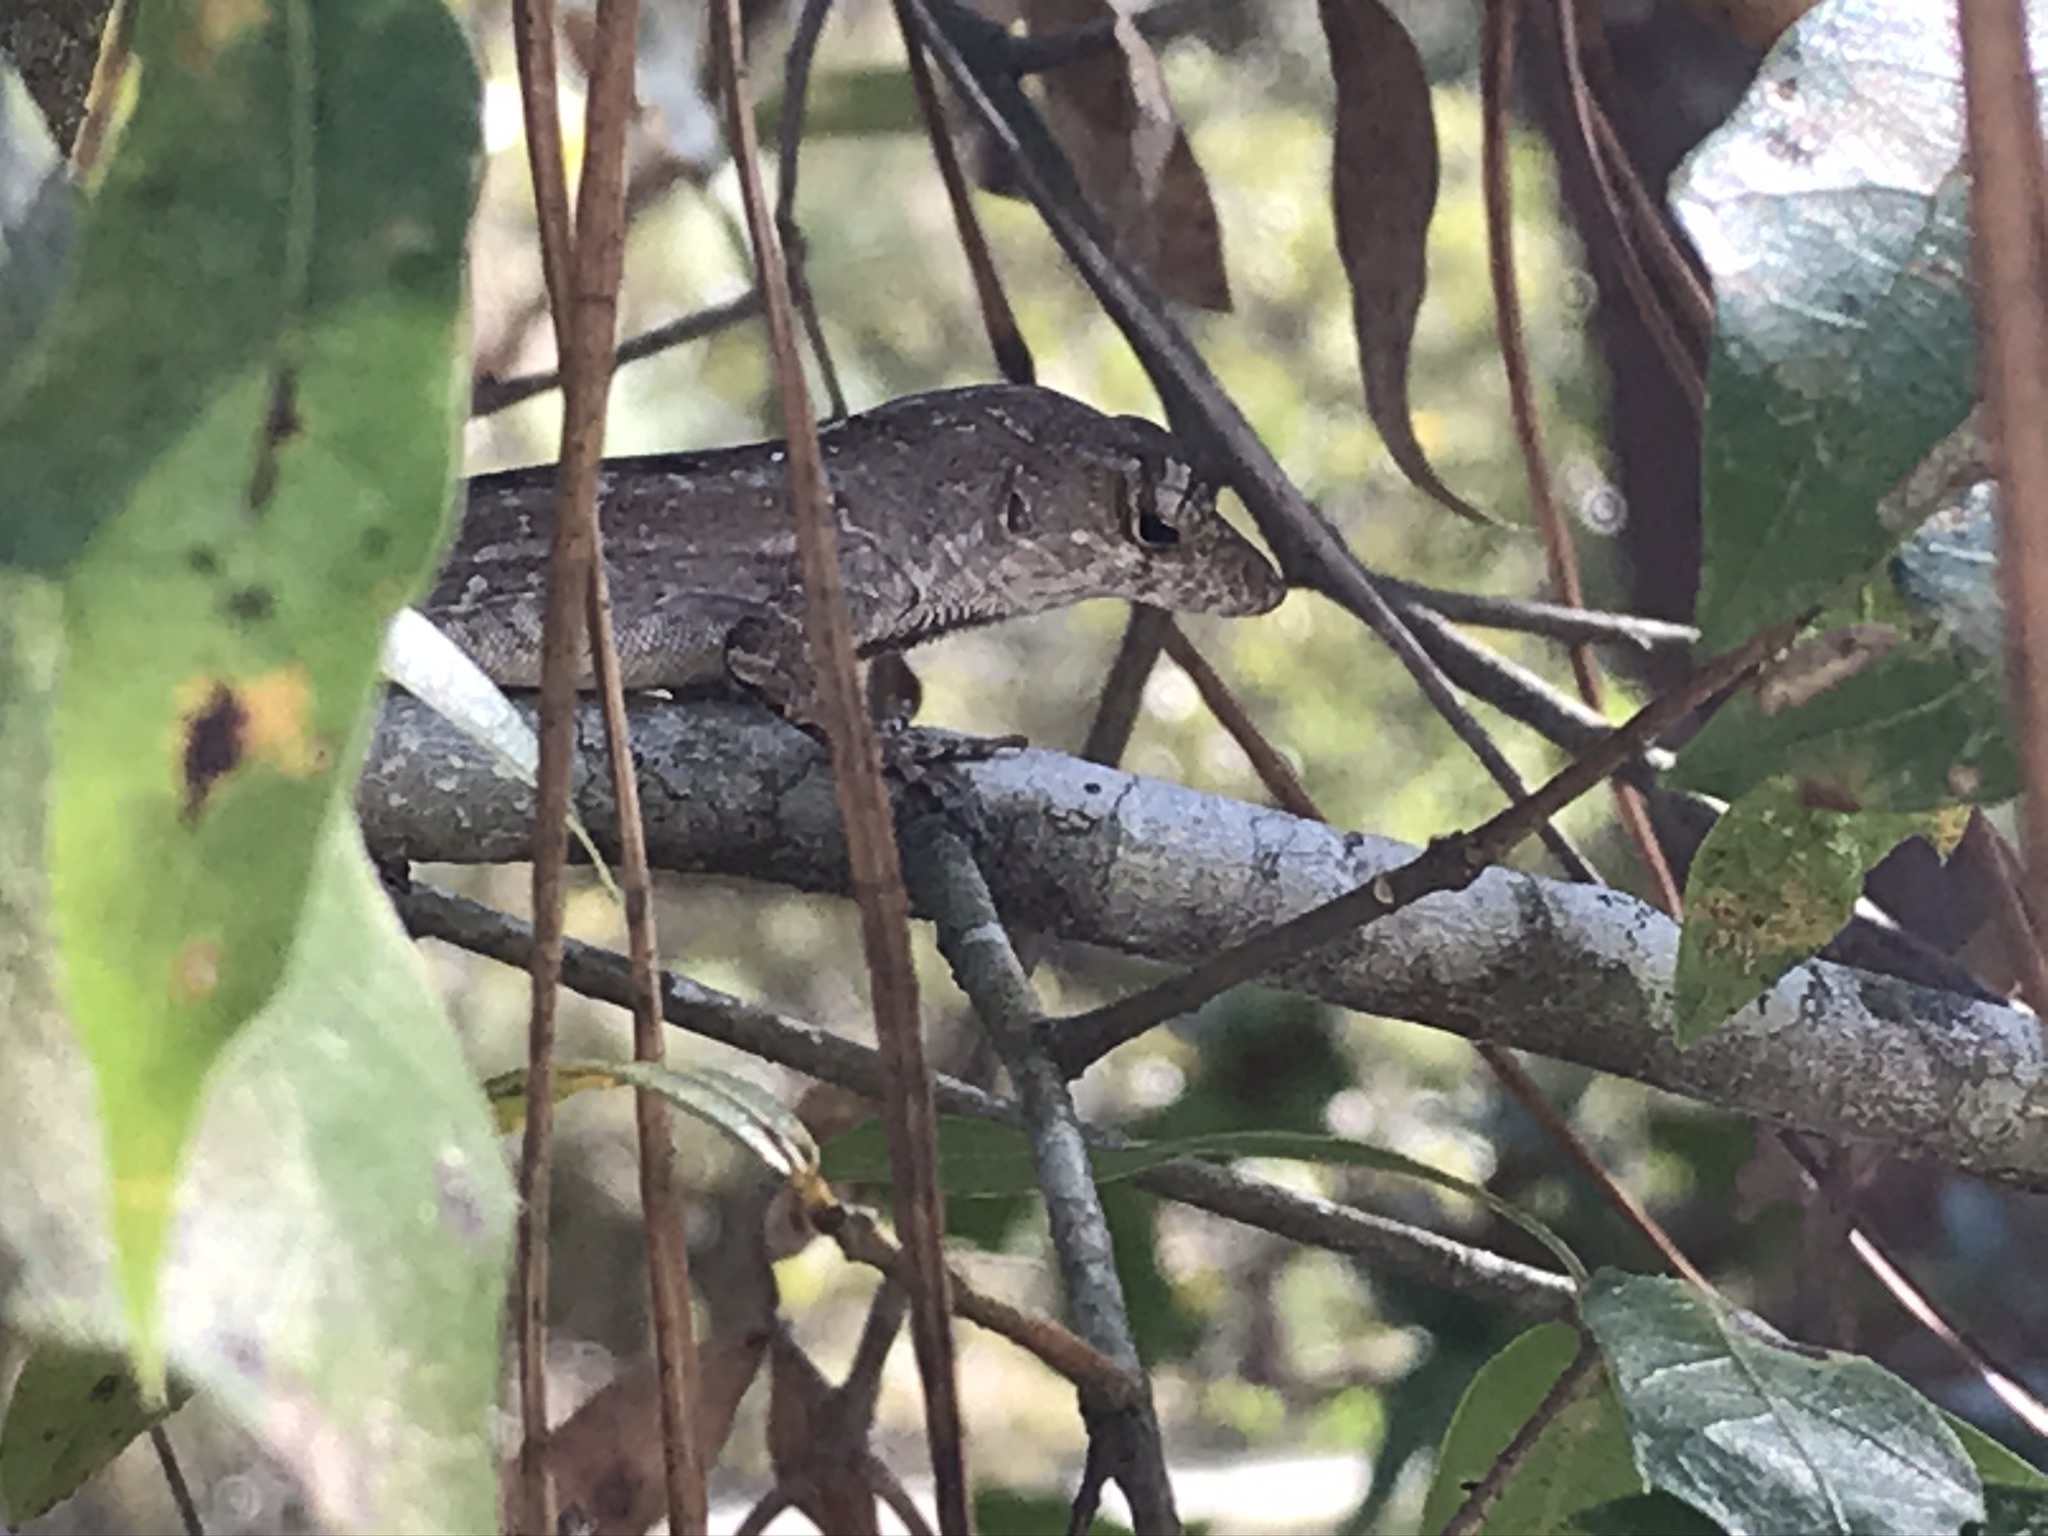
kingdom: Animalia
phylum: Chordata
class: Squamata
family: Dactyloidae
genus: Anolis
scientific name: Anolis sagrei
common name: Brown anole
